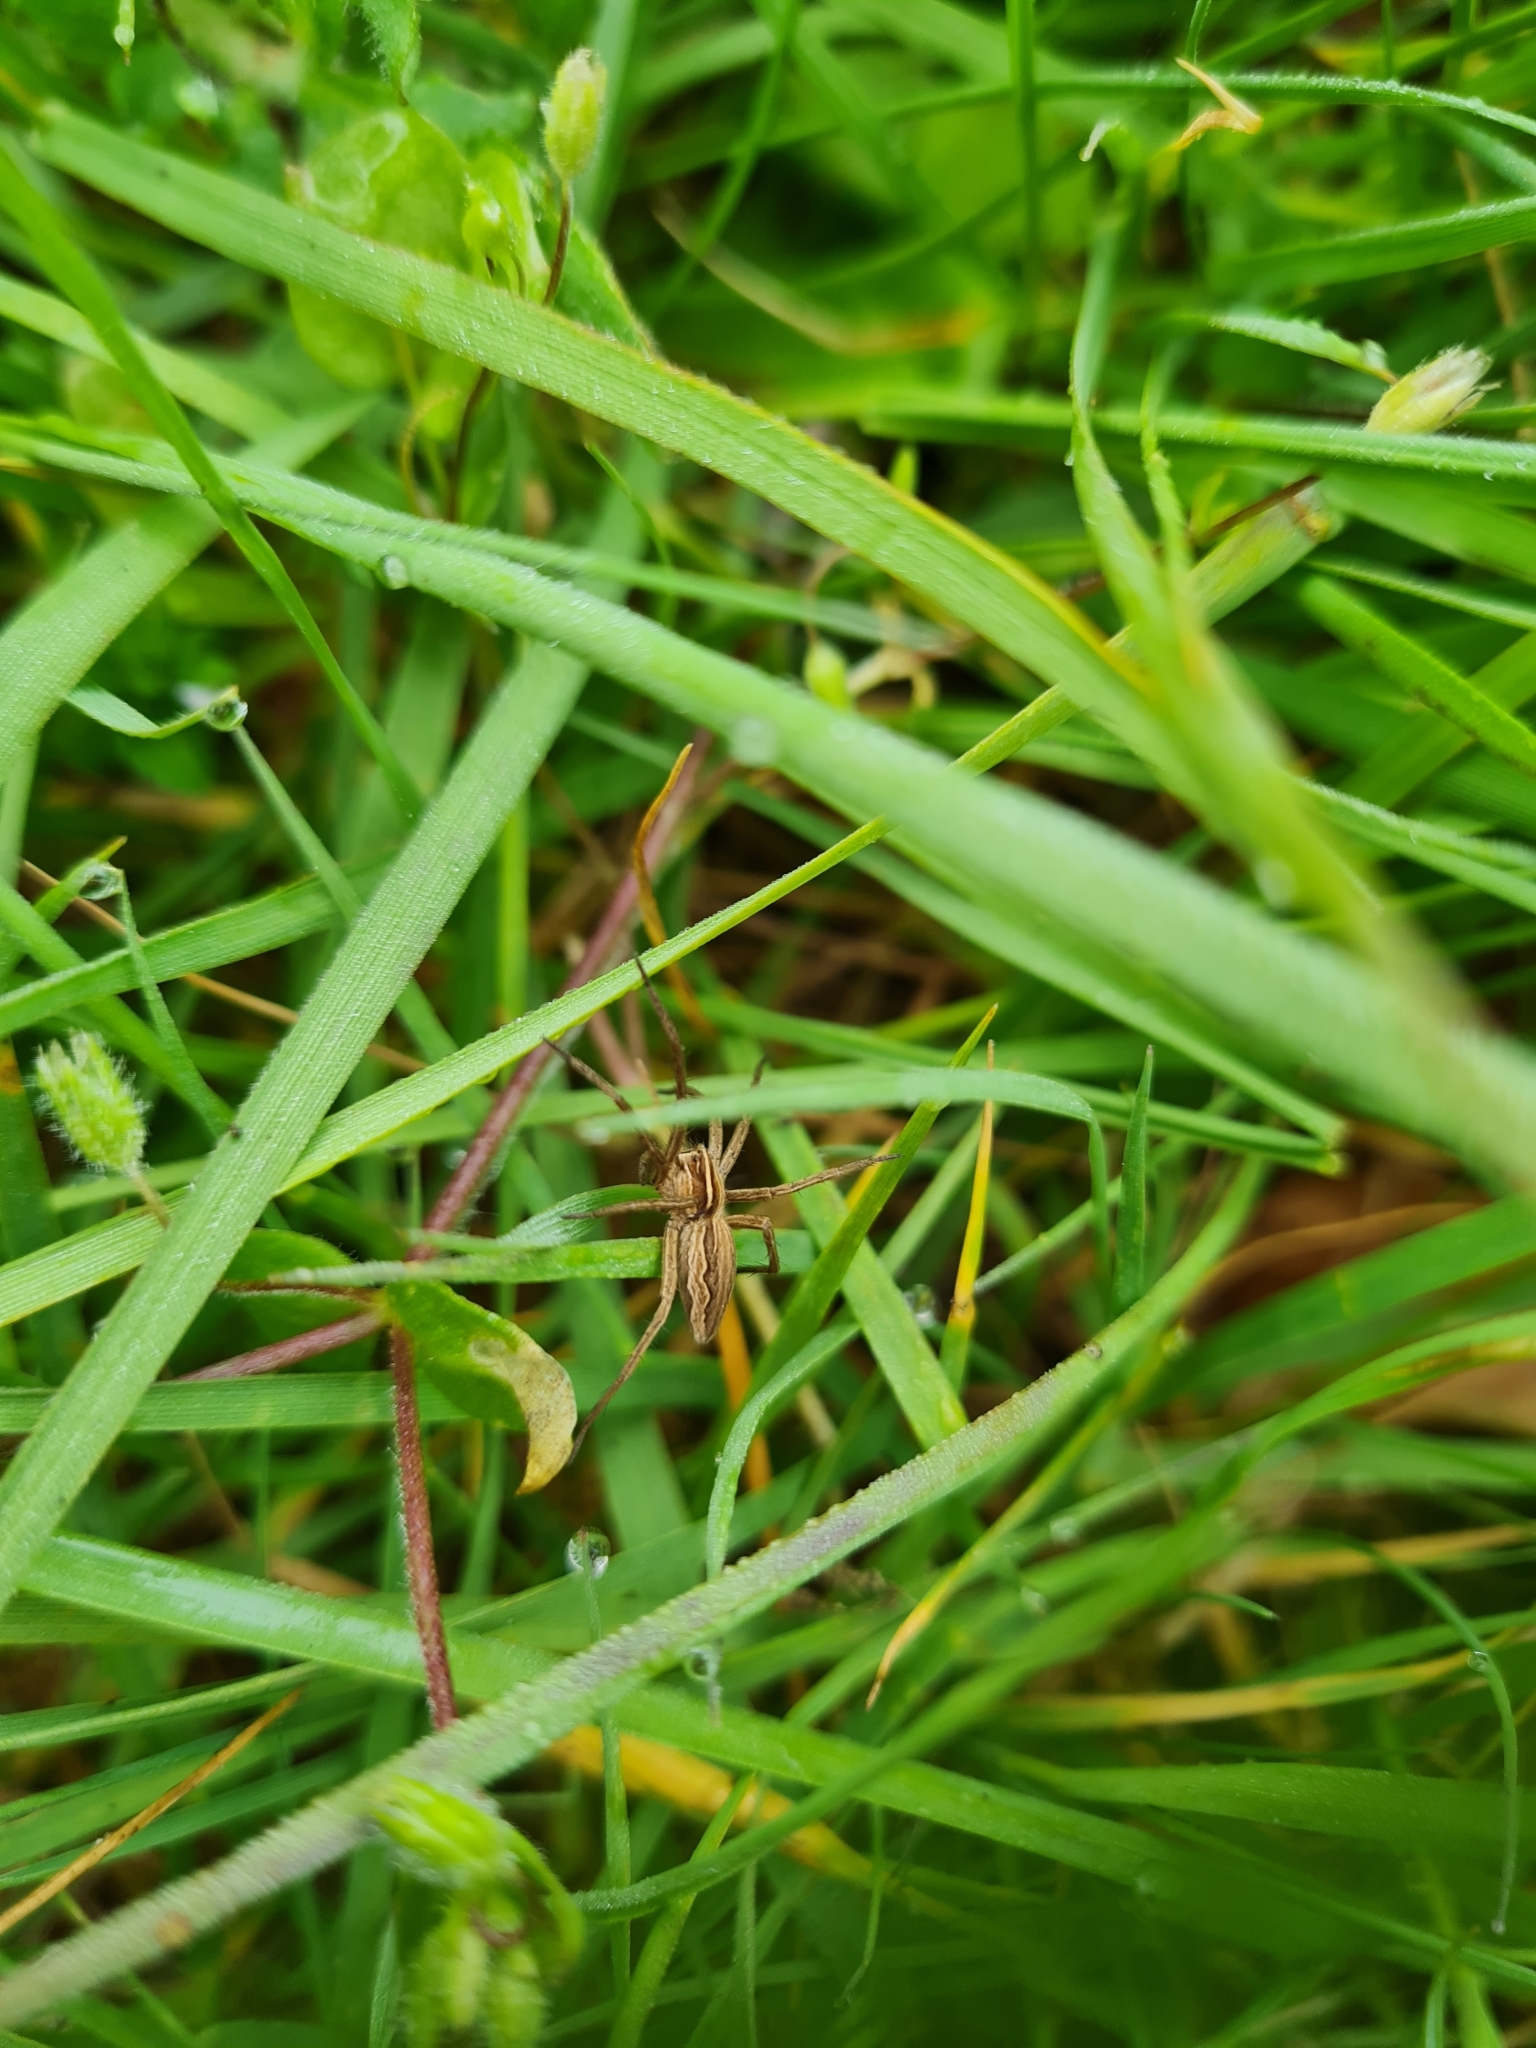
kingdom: Animalia
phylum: Arthropoda
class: Arachnida
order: Araneae
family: Pisauridae
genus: Pisaura
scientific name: Pisaura mirabilis
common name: Tent spider
